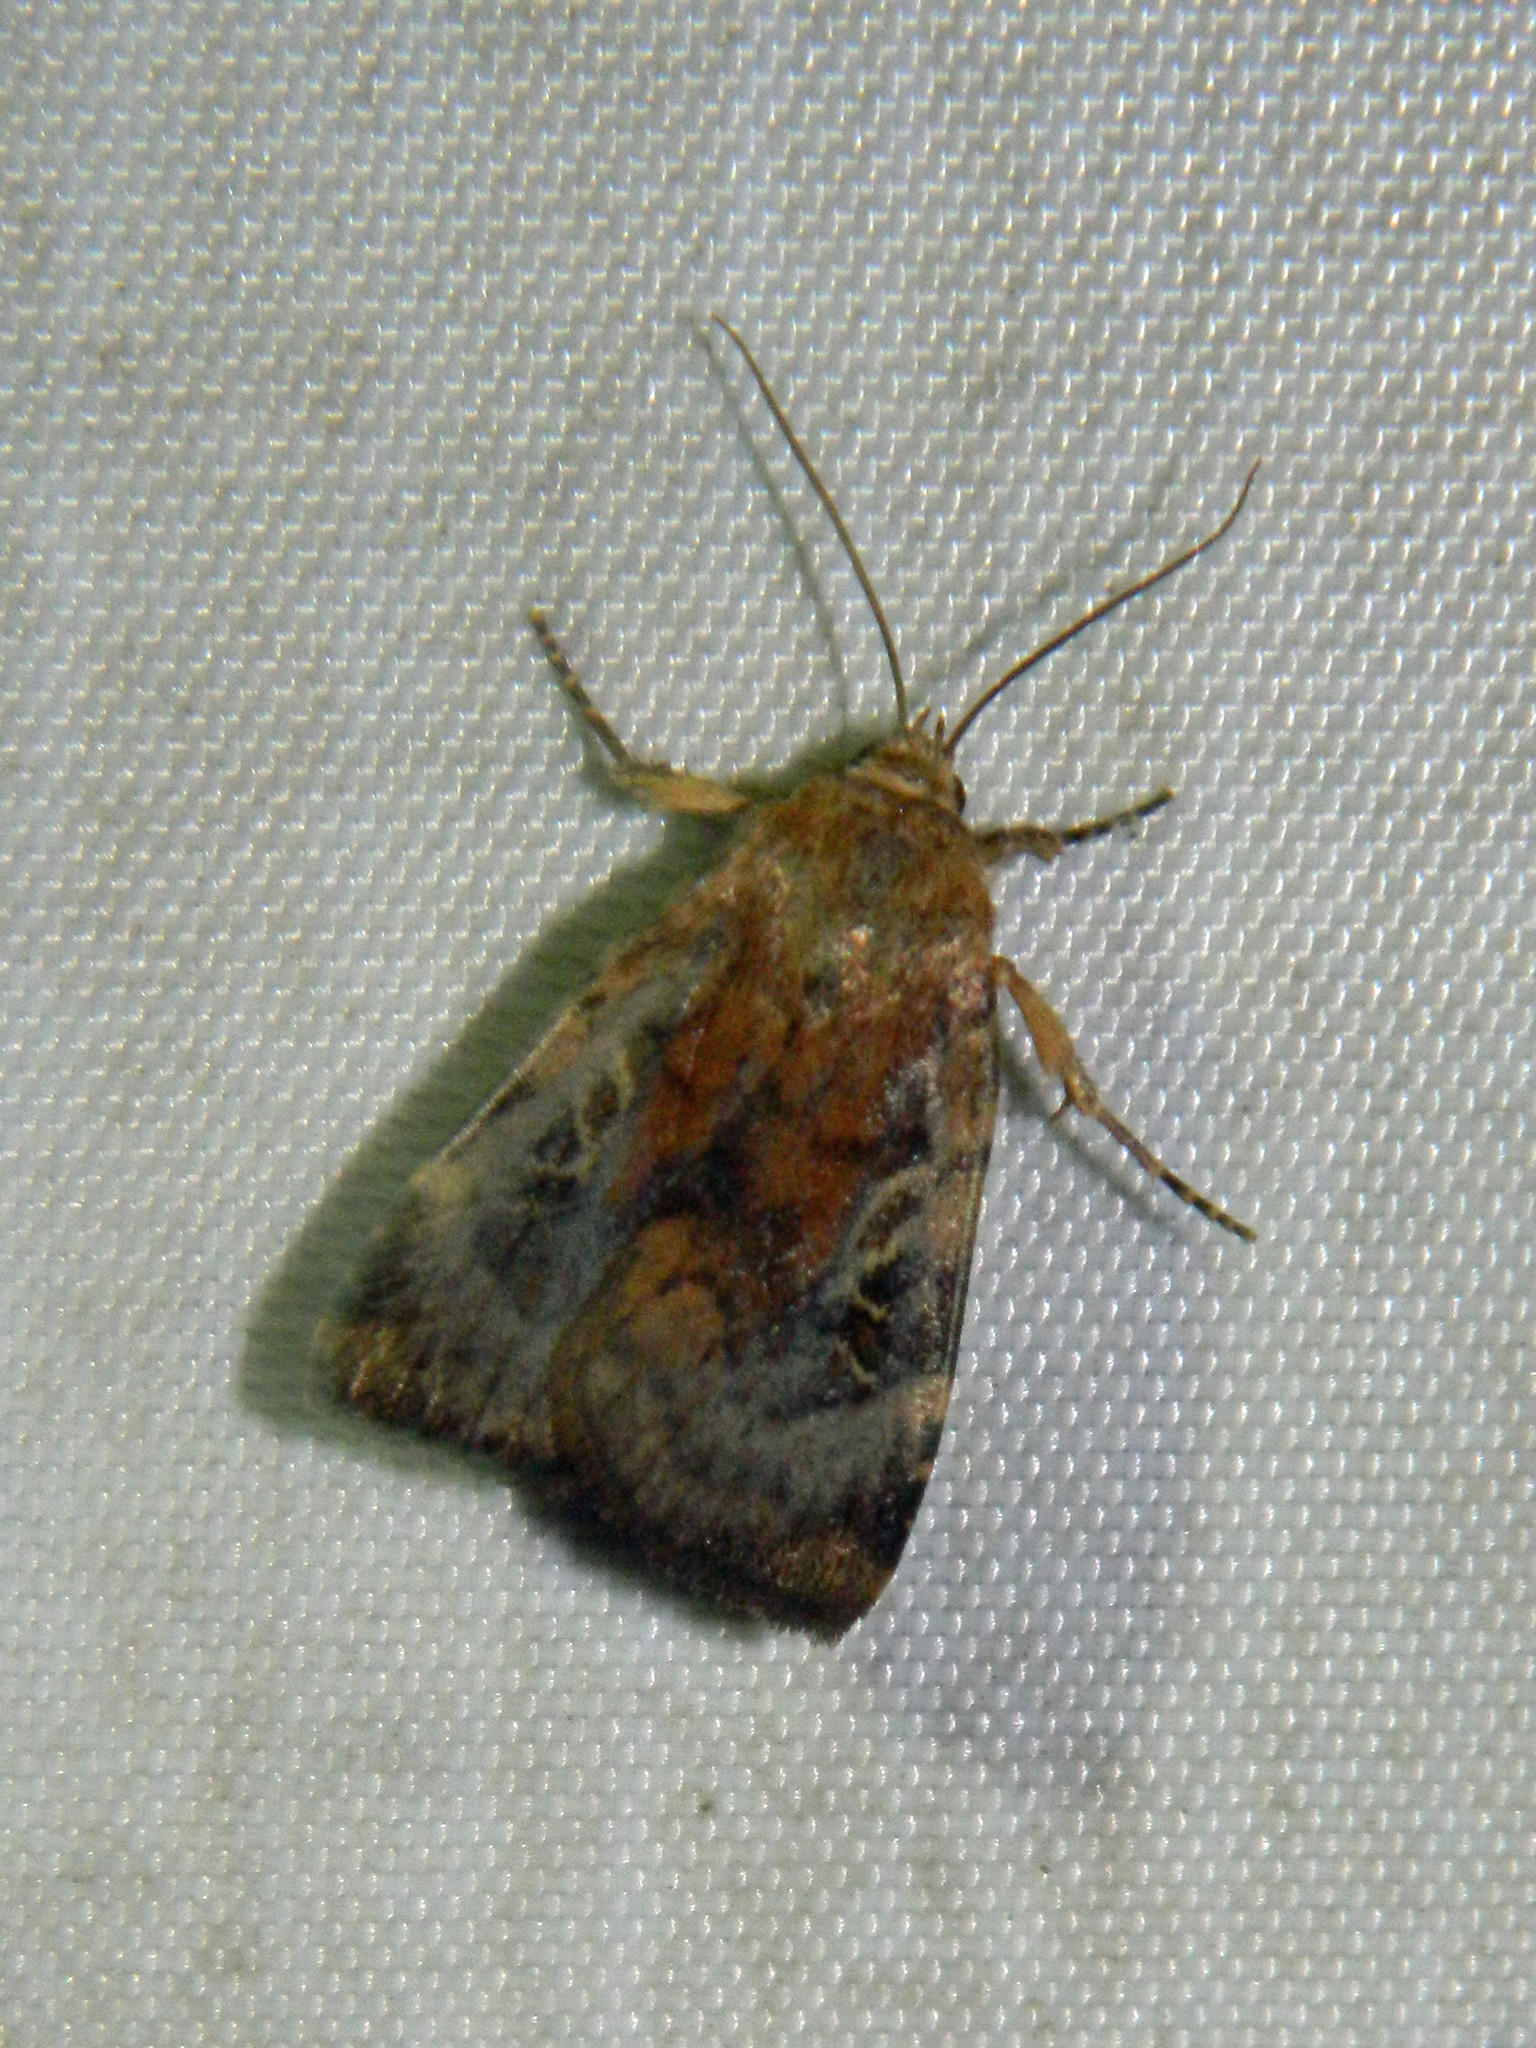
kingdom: Animalia
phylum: Arthropoda
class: Insecta
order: Lepidoptera
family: Noctuidae
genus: Cryptocala
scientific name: Cryptocala acadiensis
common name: Catocaline dart
